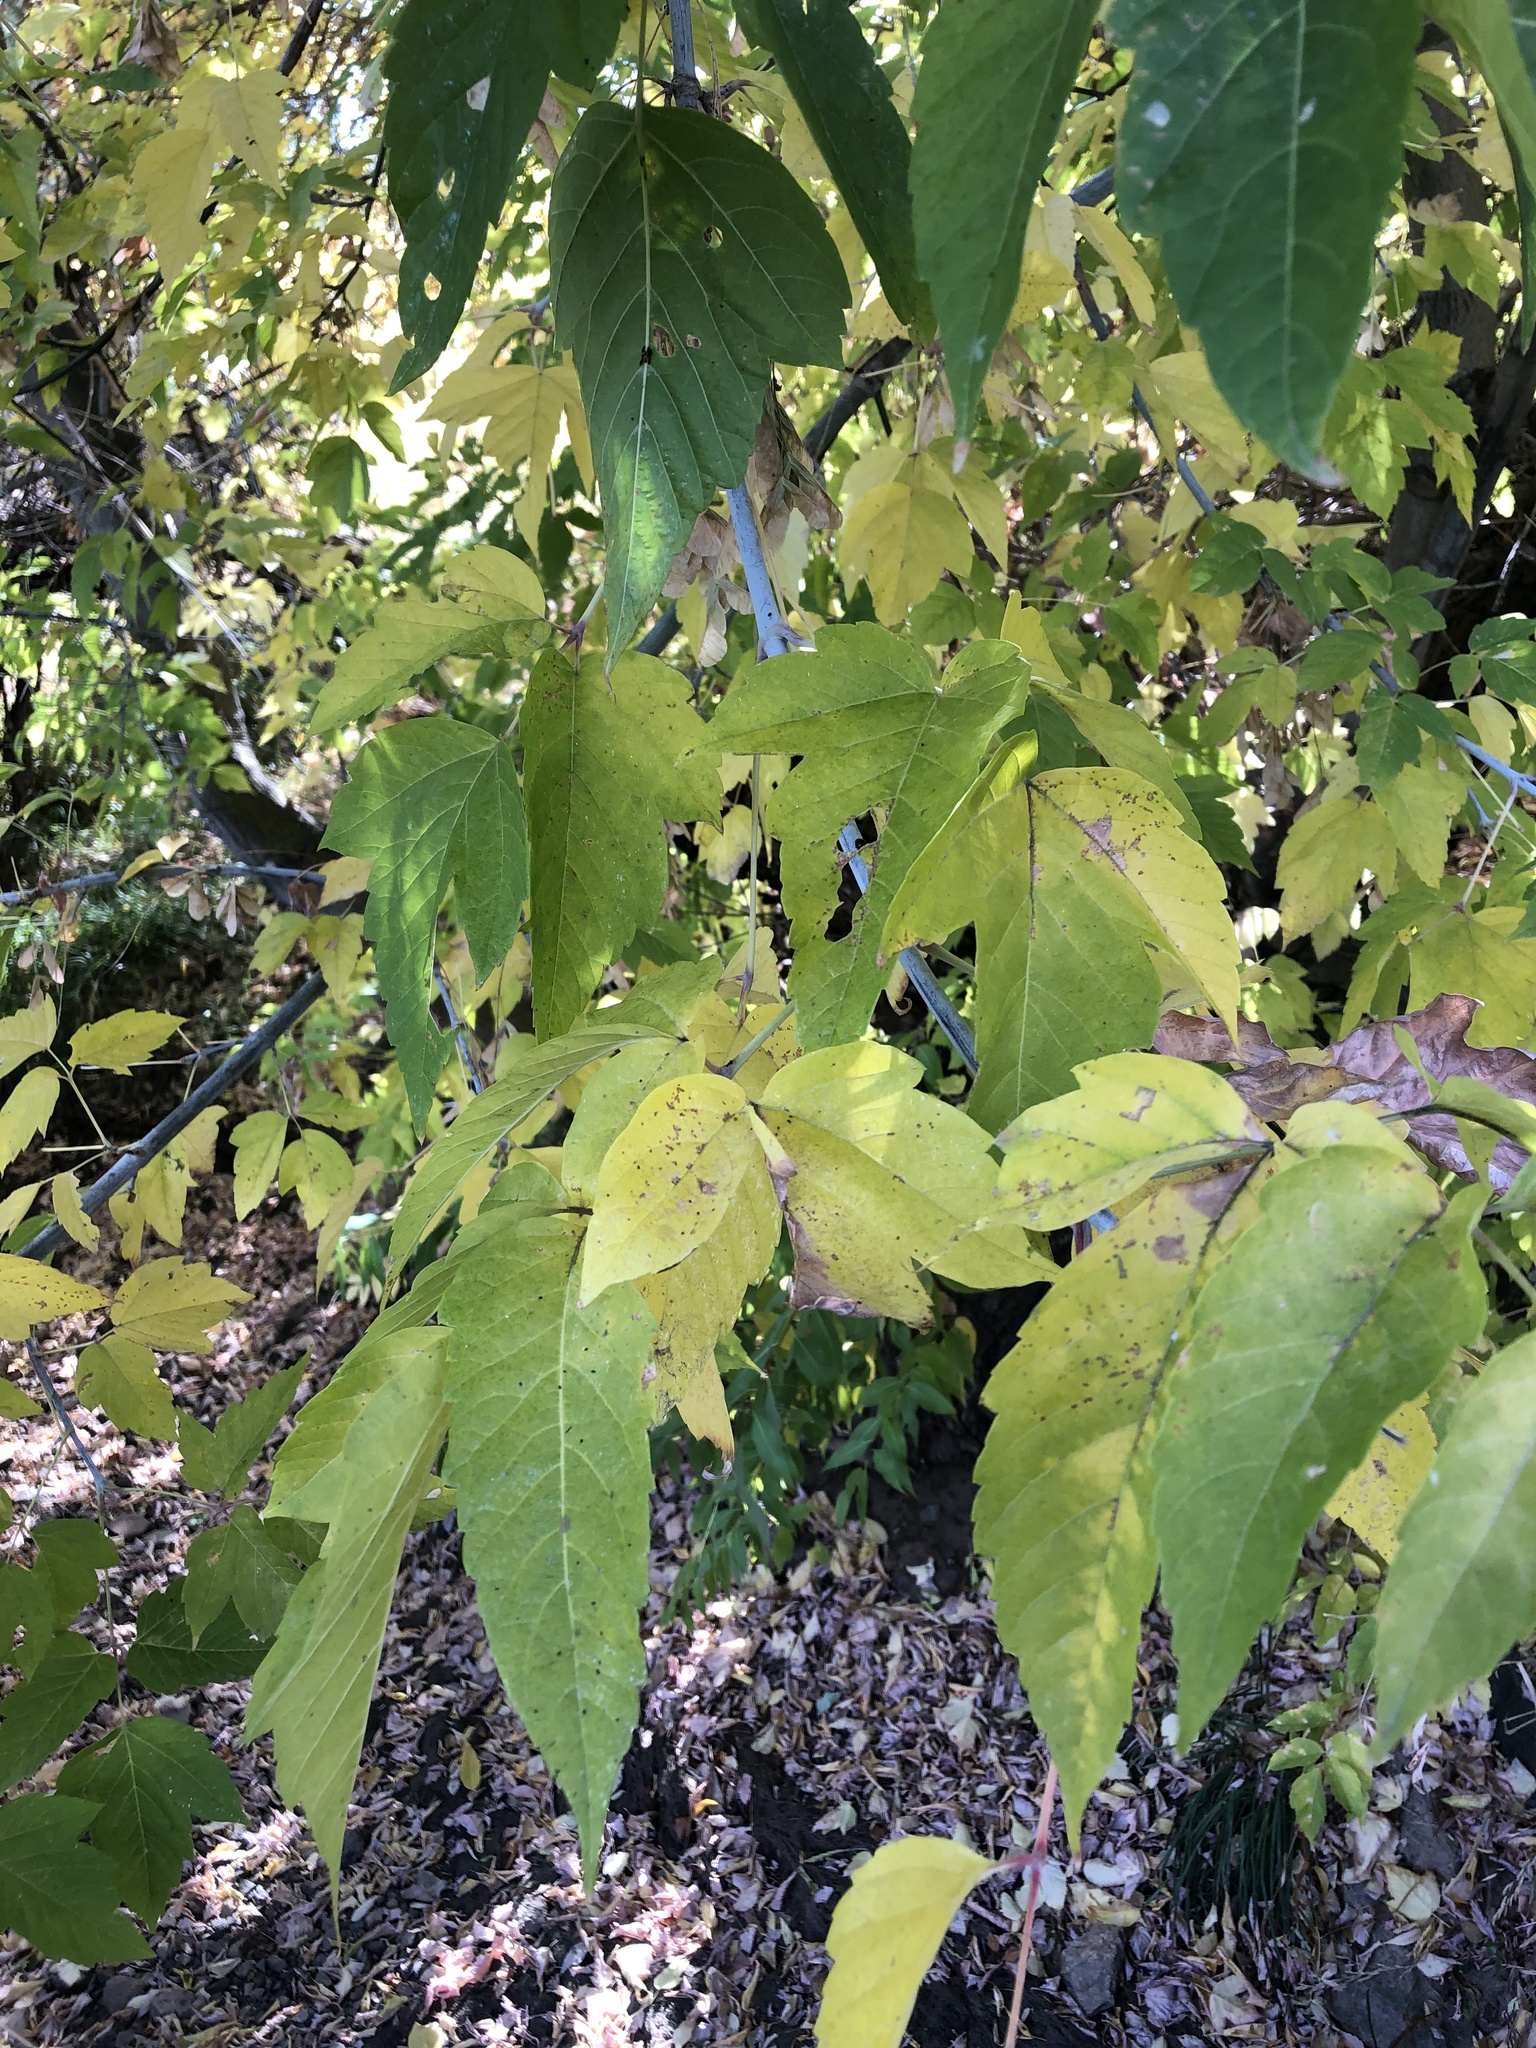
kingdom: Plantae
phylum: Tracheophyta
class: Magnoliopsida
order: Sapindales
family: Sapindaceae
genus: Acer
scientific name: Acer negundo
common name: Ashleaf maple
